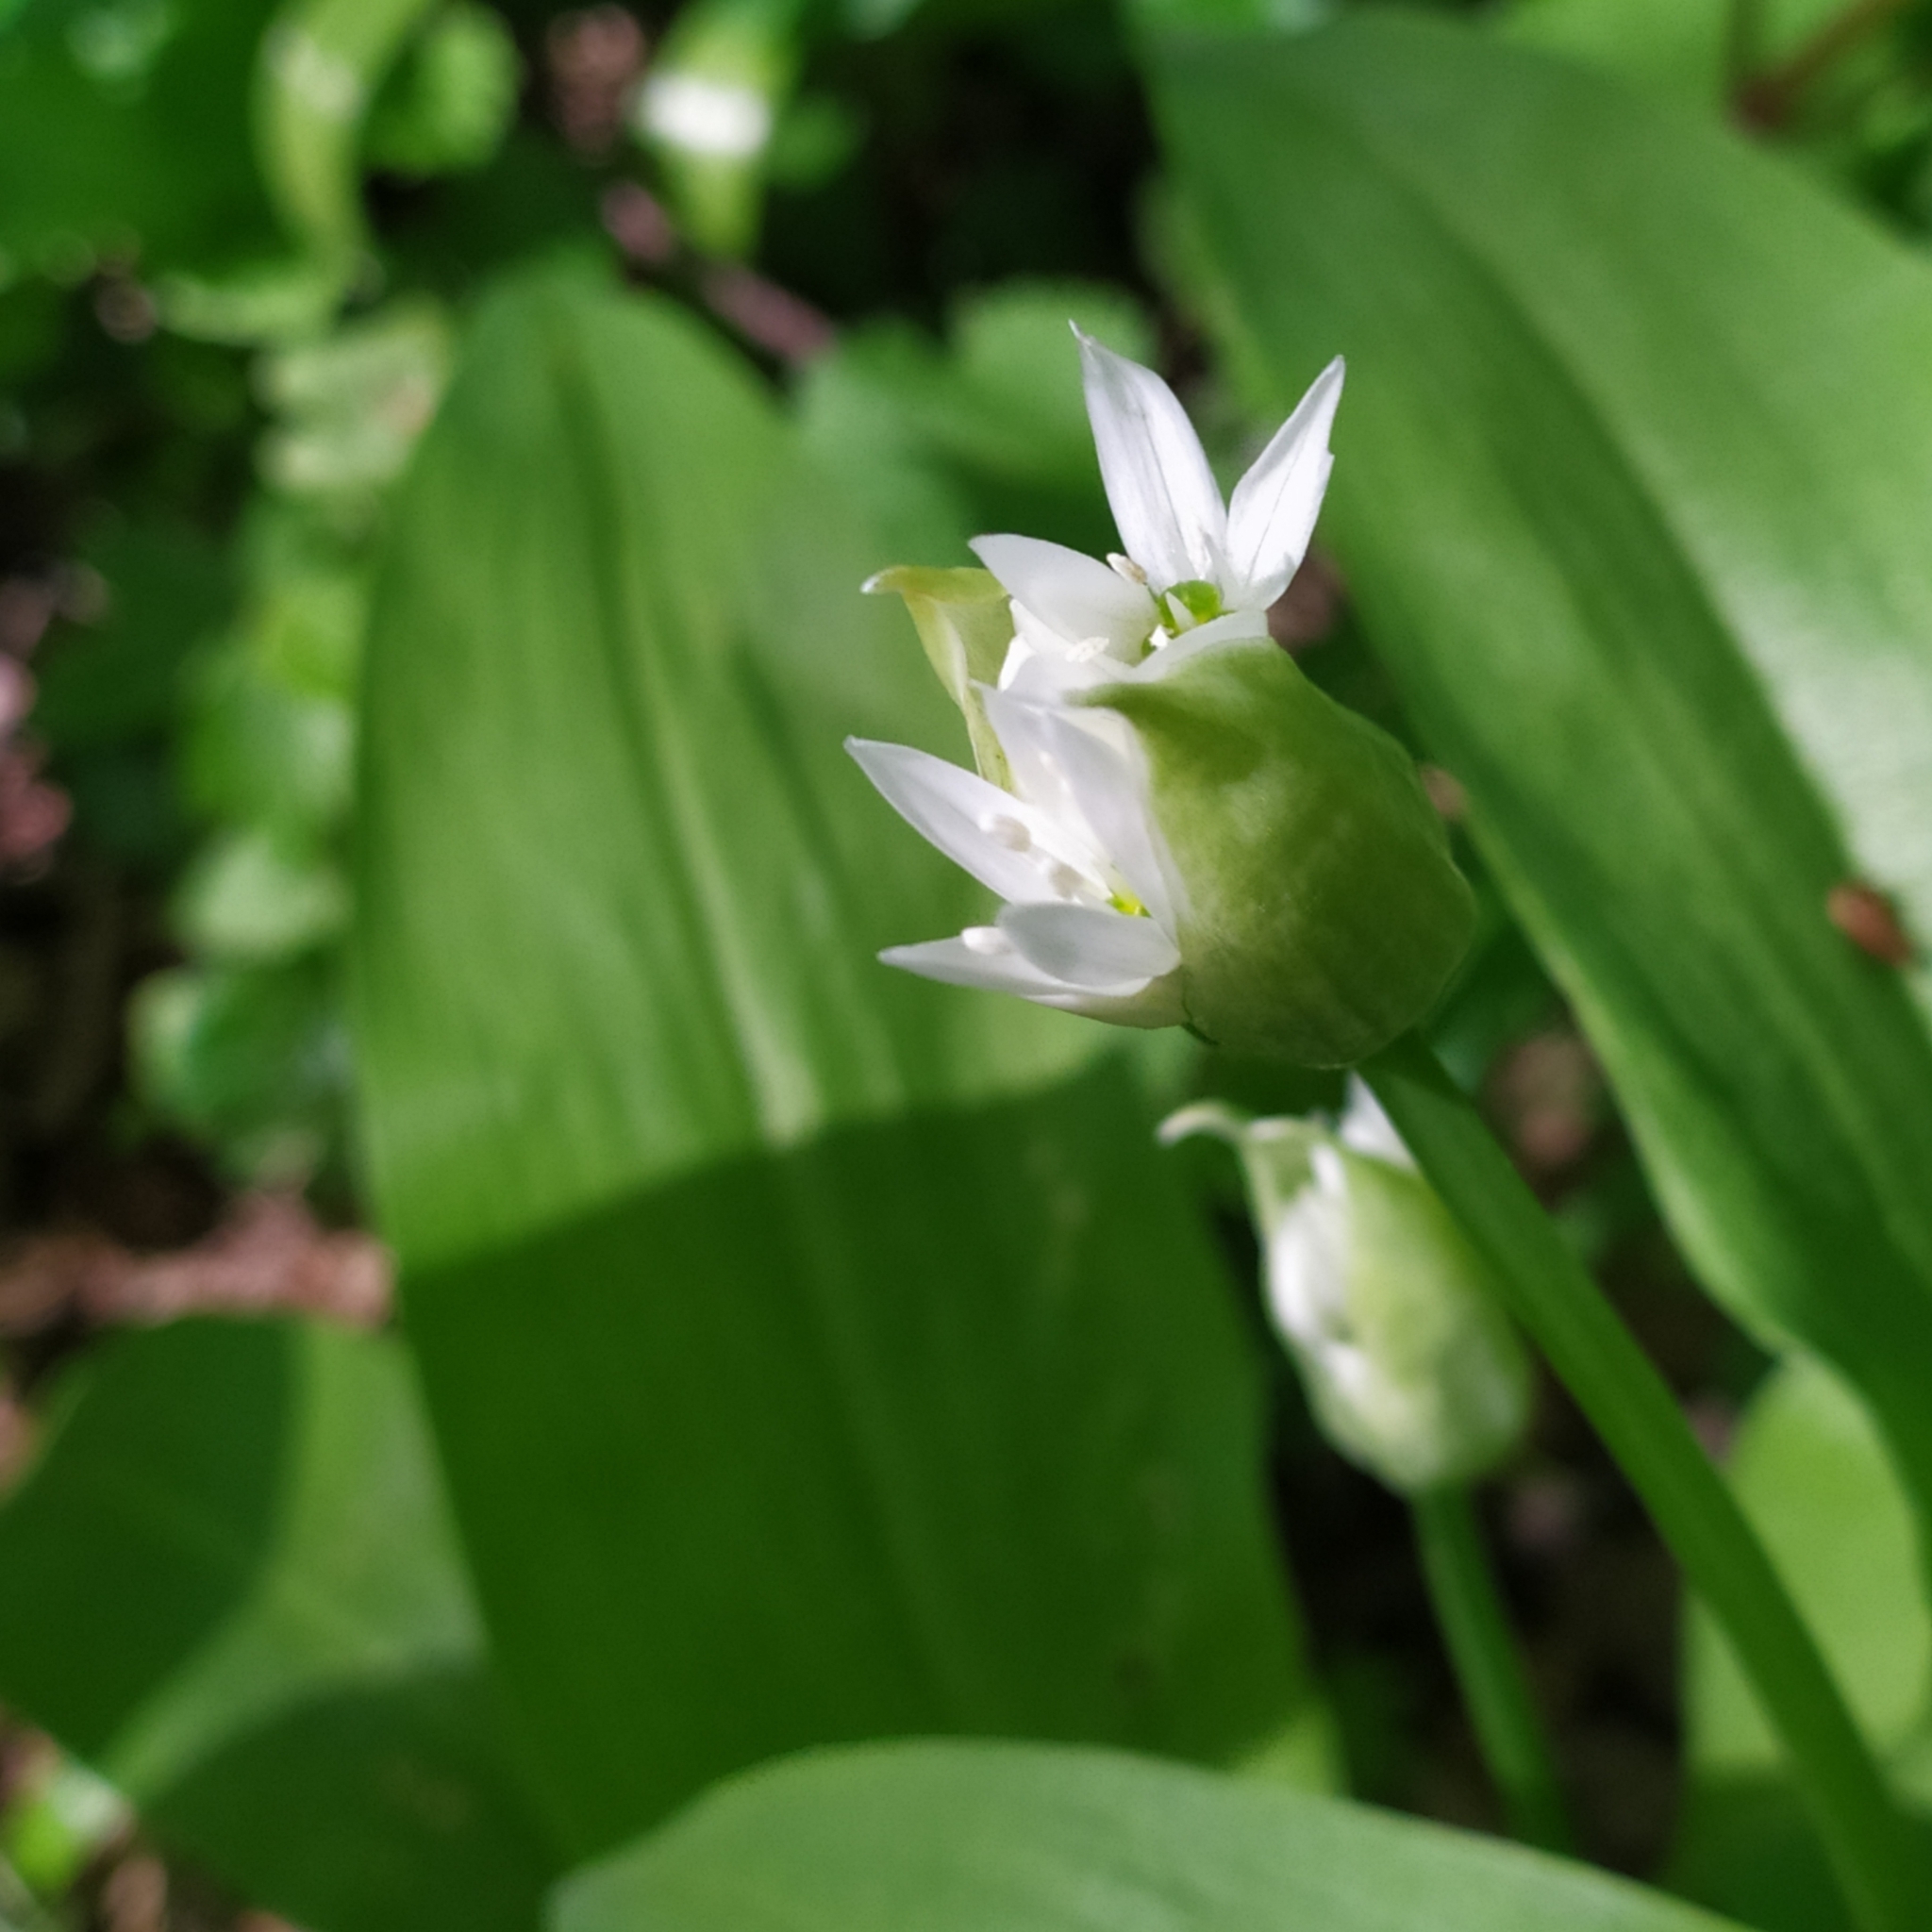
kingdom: Plantae
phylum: Tracheophyta
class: Liliopsida
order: Asparagales
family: Amaryllidaceae
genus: Allium
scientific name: Allium ursinum
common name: Ramsons
